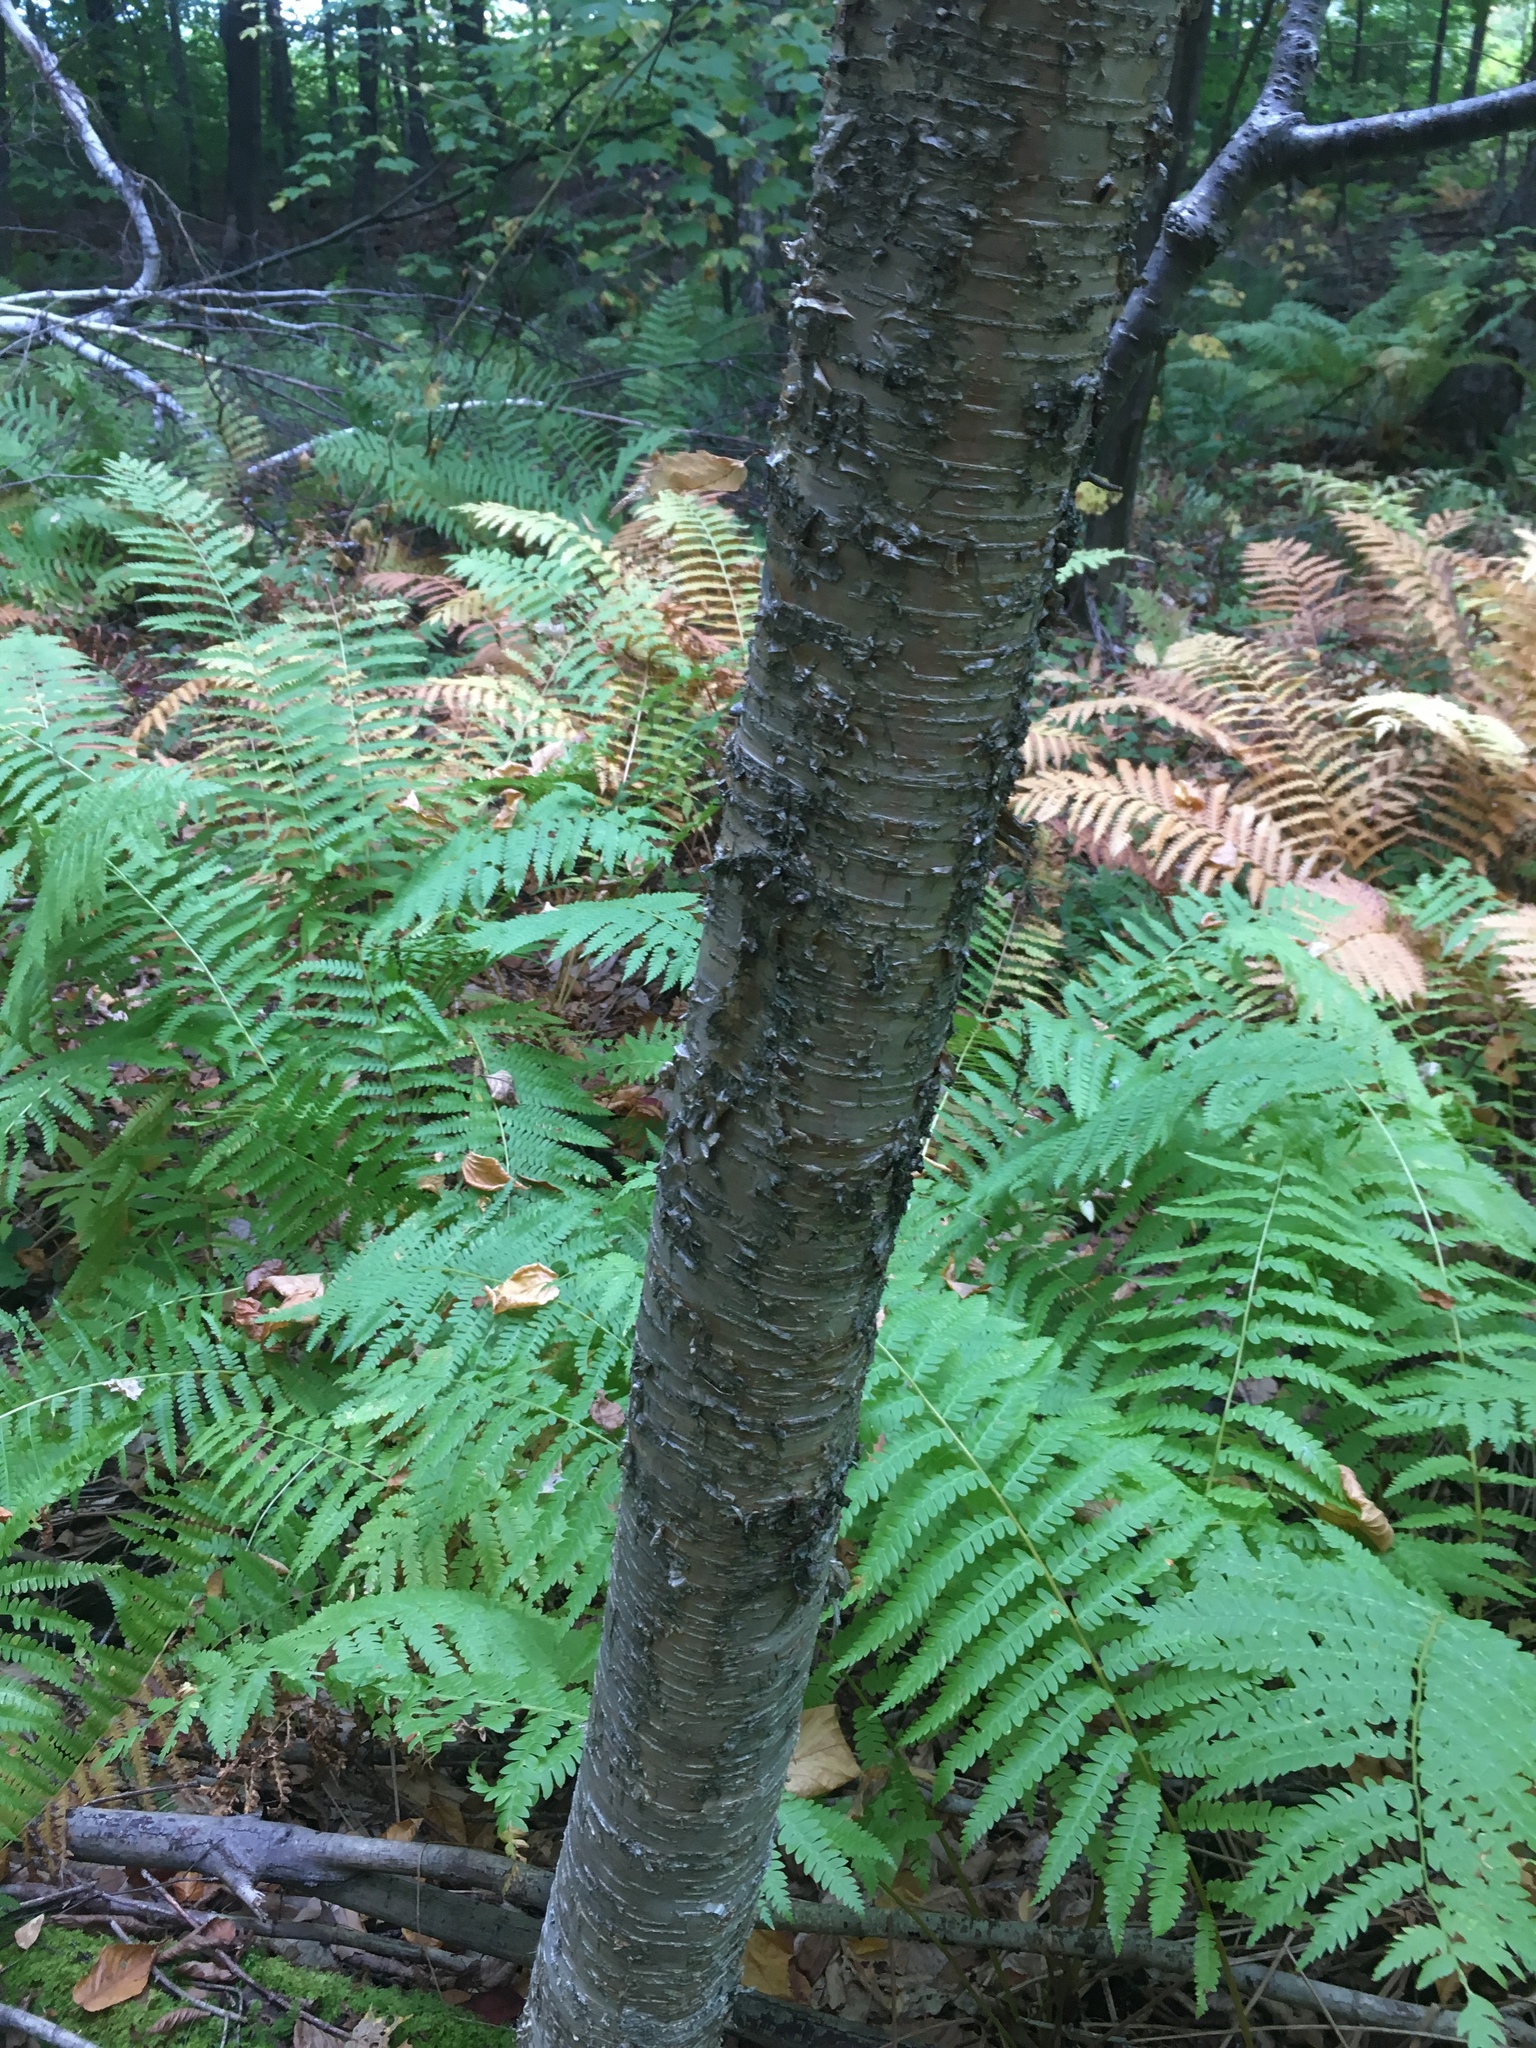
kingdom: Plantae
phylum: Tracheophyta
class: Magnoliopsida
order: Fagales
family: Betulaceae
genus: Betula
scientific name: Betula alleghaniensis
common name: Yellow birch
